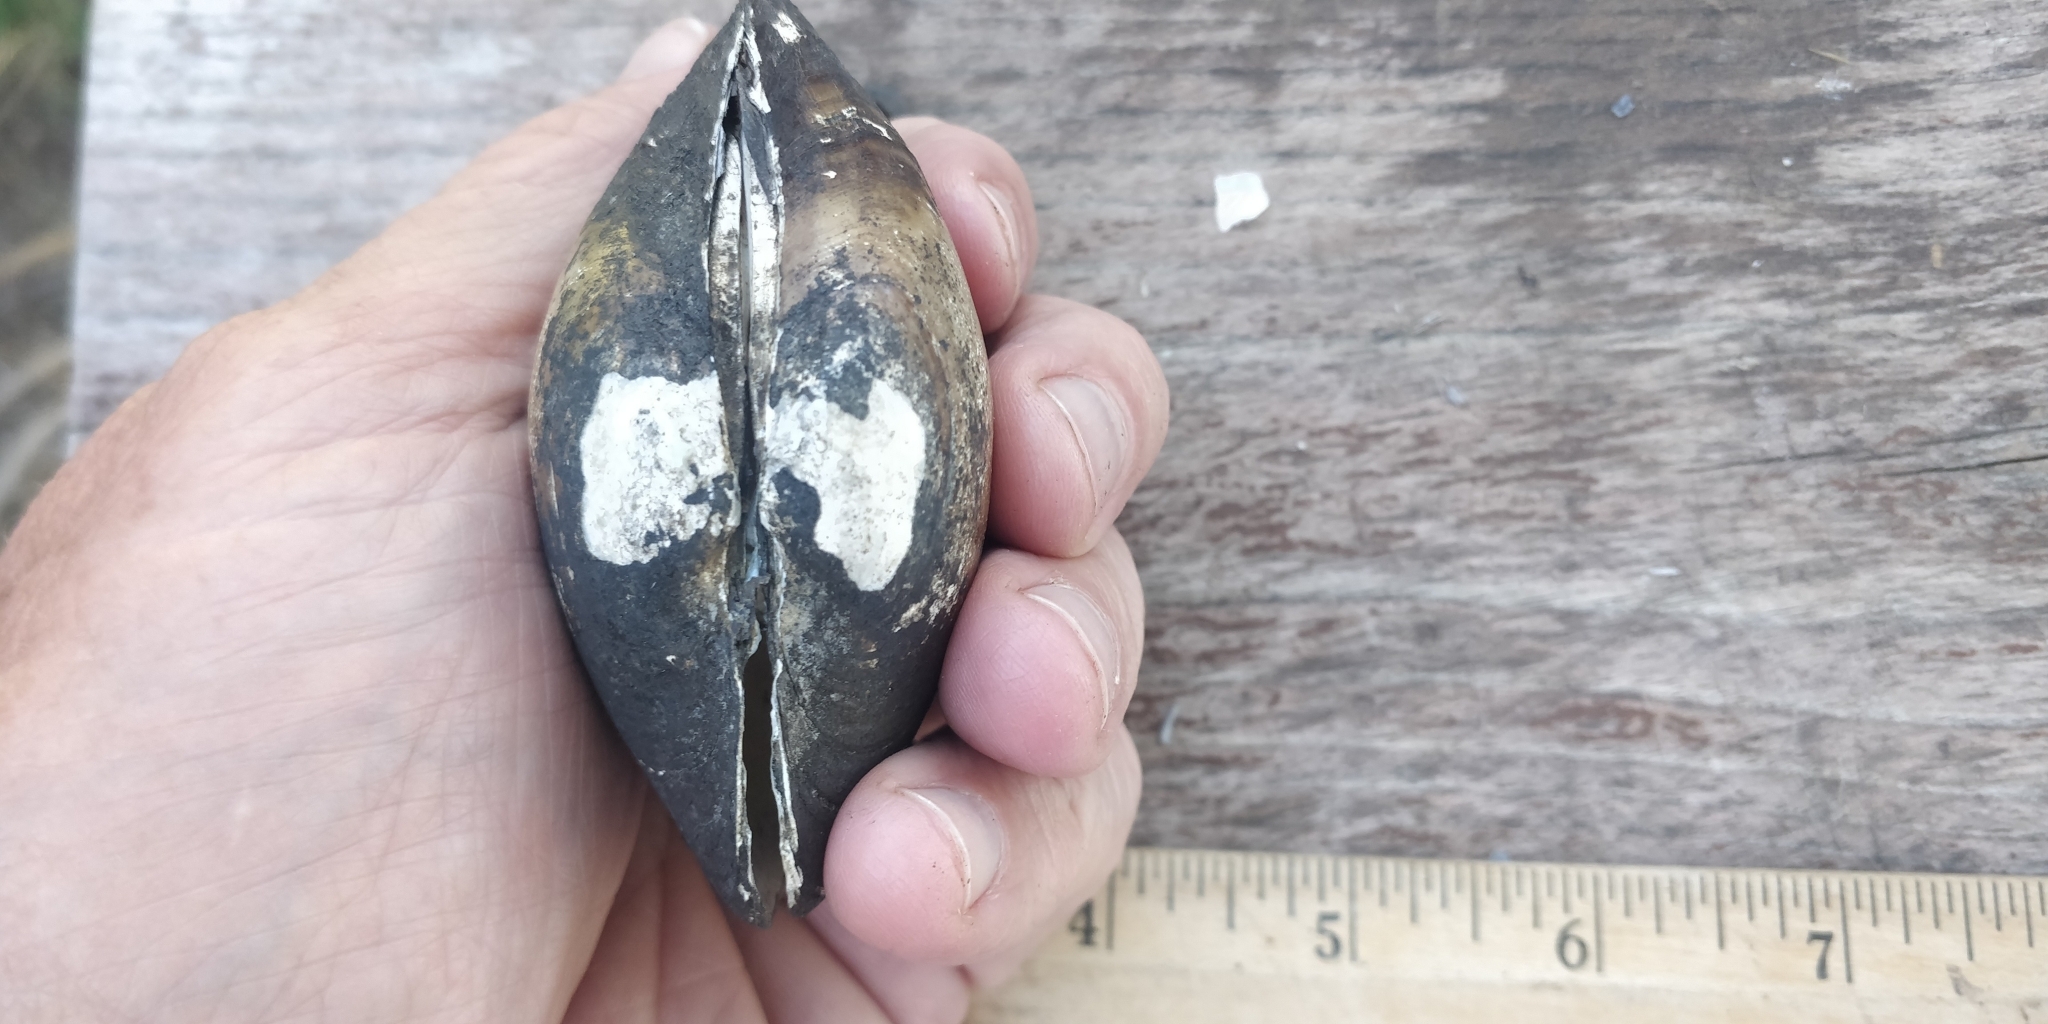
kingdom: Animalia
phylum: Mollusca
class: Bivalvia
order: Unionida
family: Unionidae
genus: Lampsilis
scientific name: Lampsilis cardium
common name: Plain pocketbook
